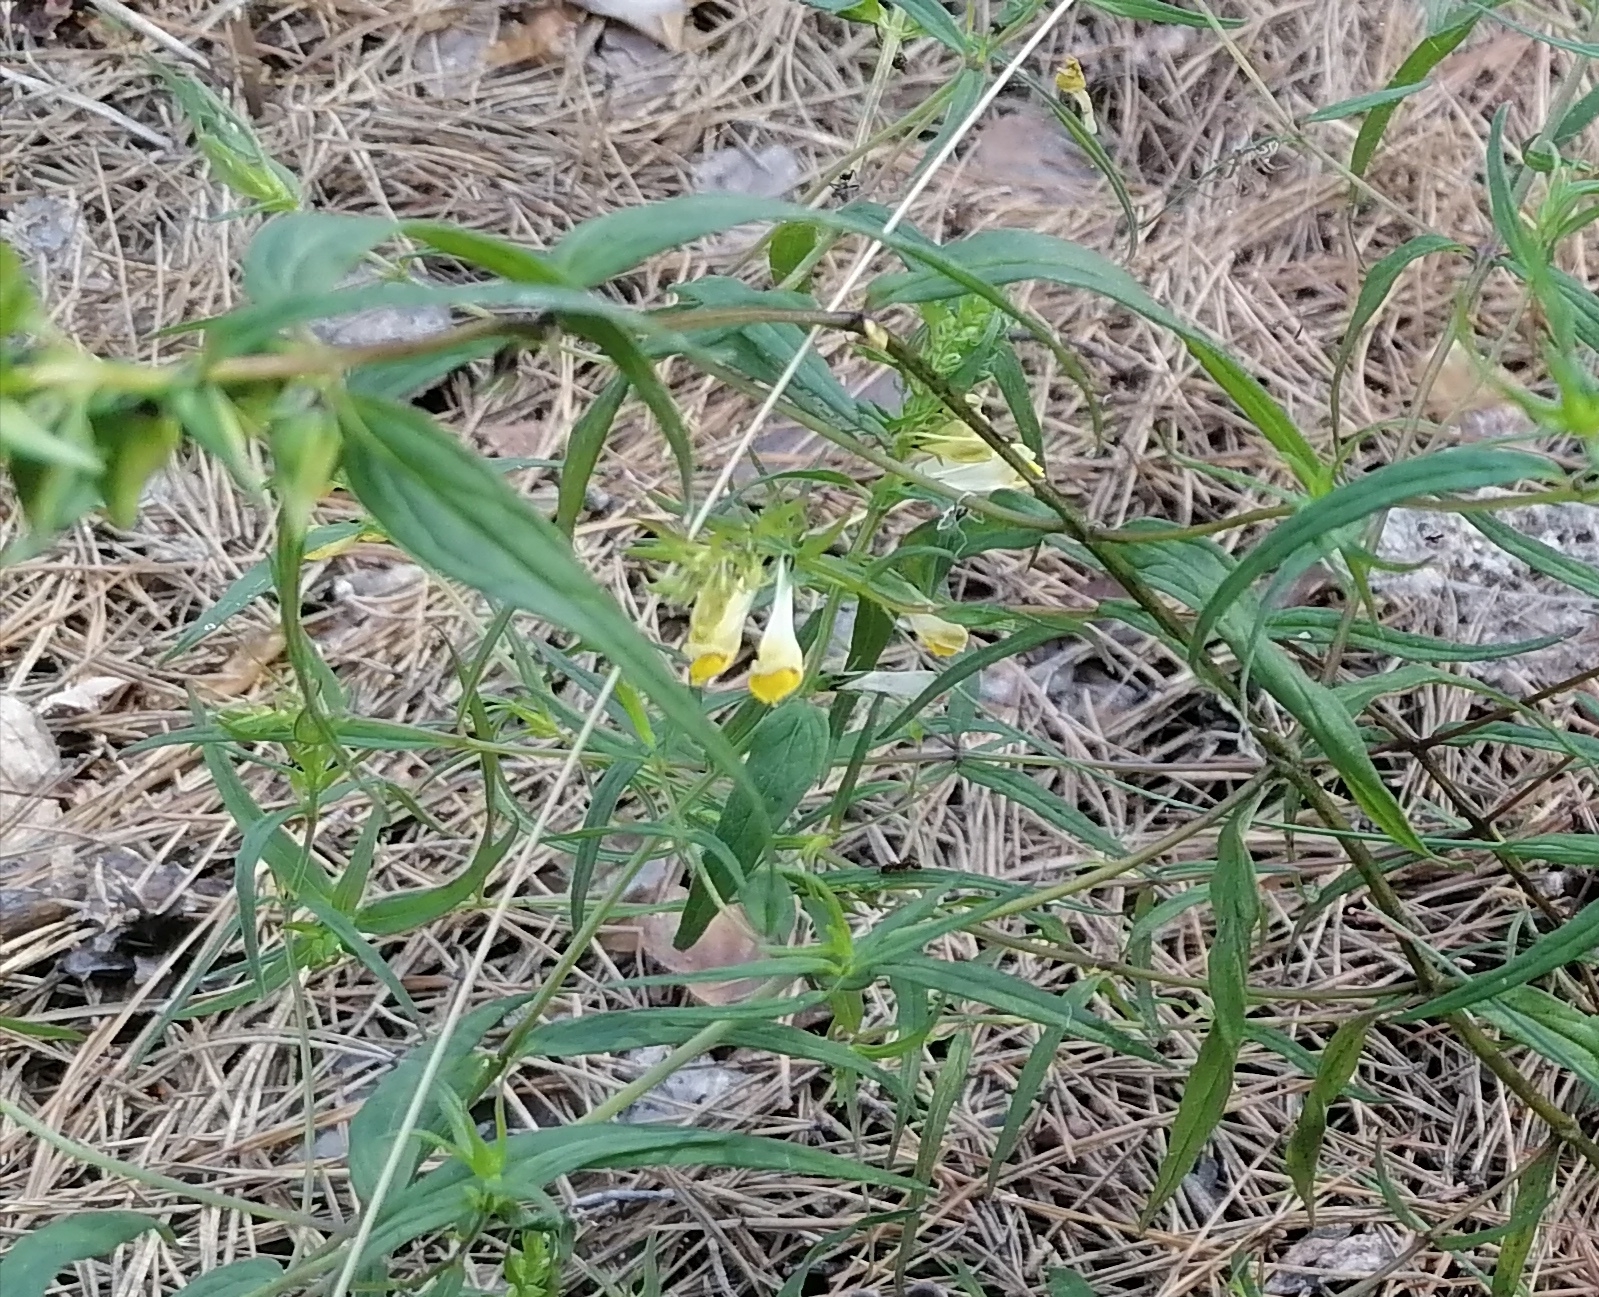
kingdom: Plantae
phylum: Tracheophyta
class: Magnoliopsida
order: Lamiales
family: Orobanchaceae
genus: Melampyrum
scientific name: Melampyrum pratense
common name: Common cow-wheat
